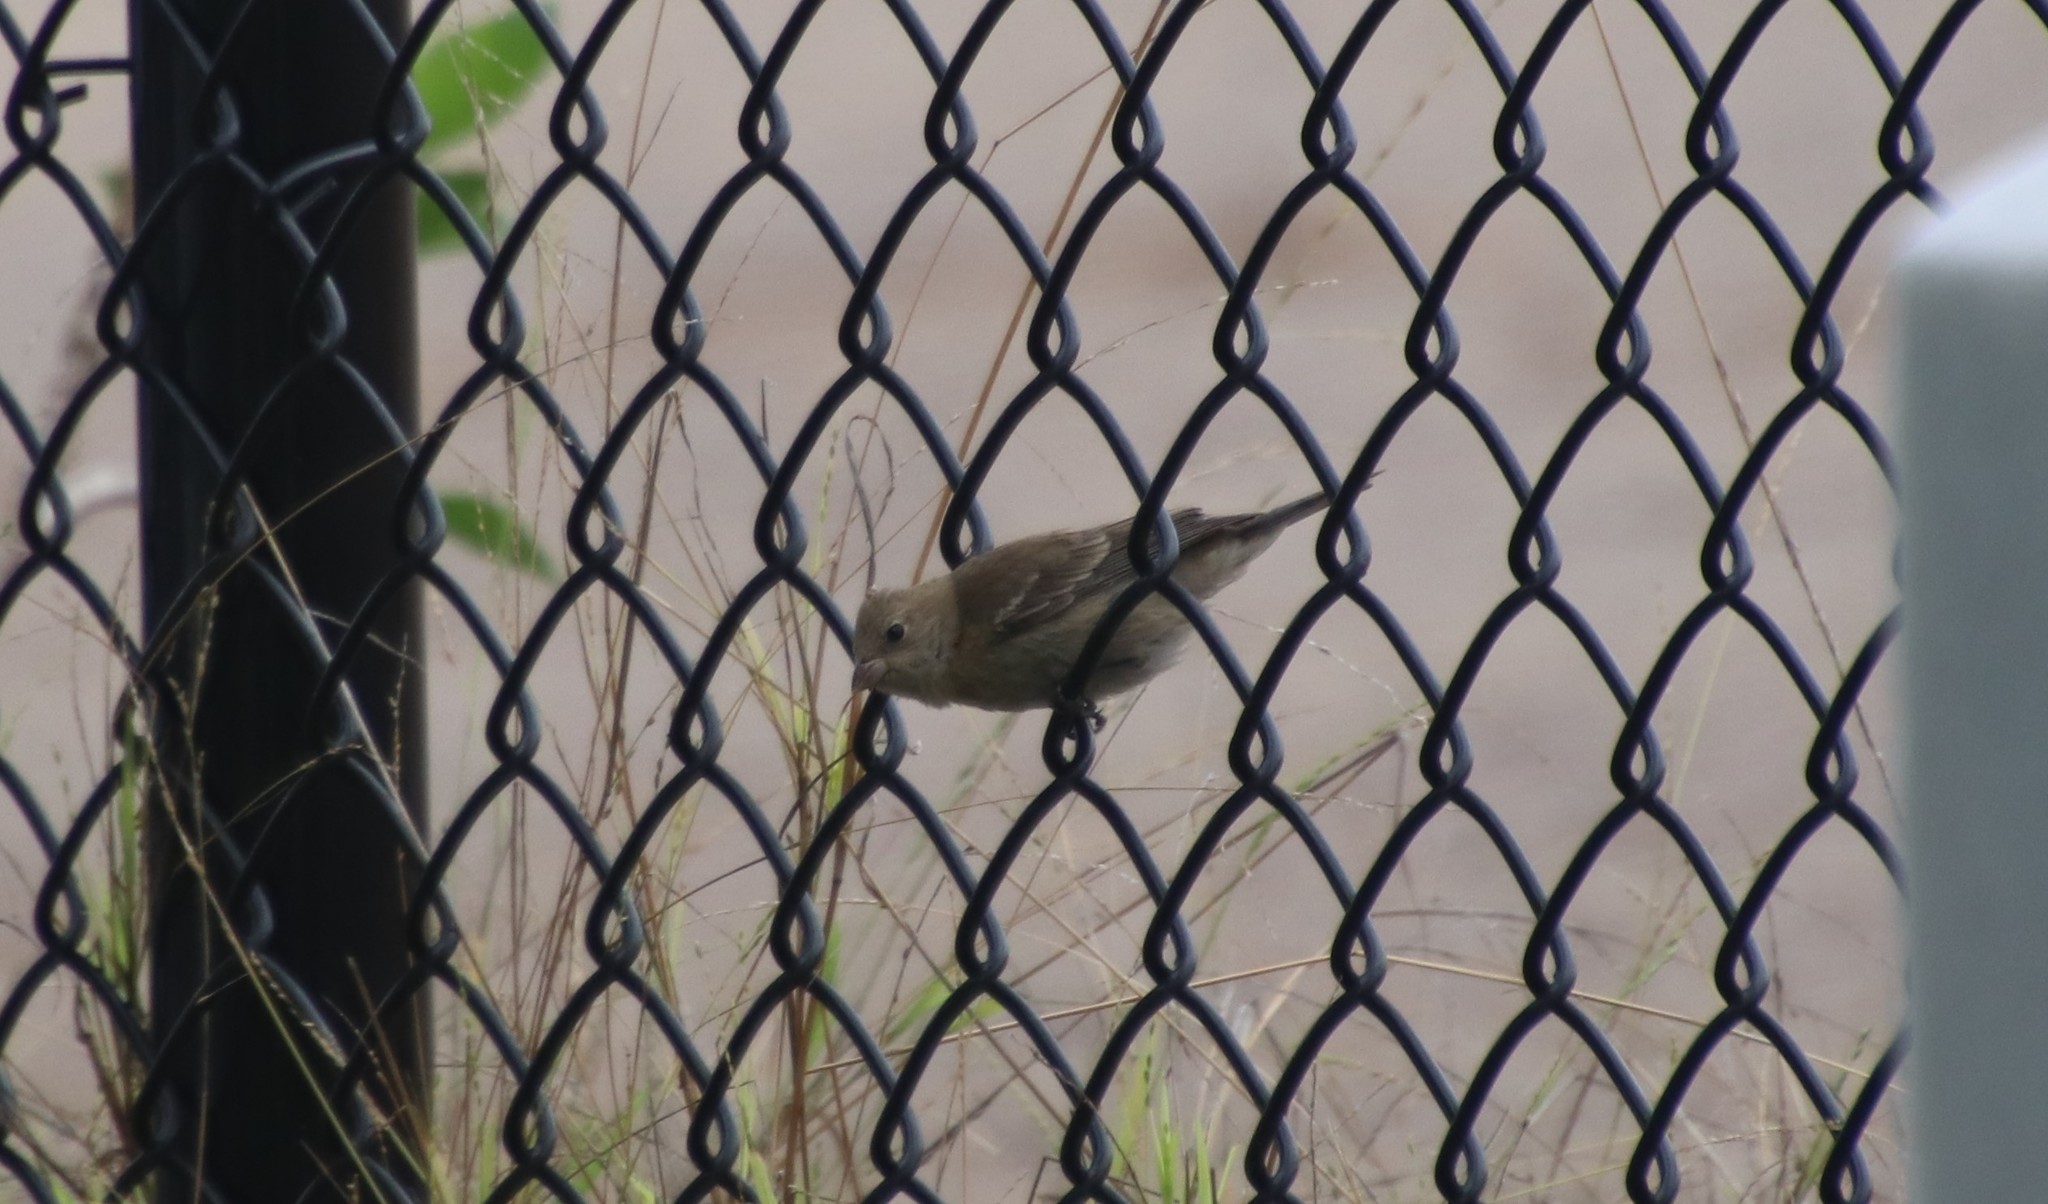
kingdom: Animalia
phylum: Chordata
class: Aves
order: Passeriformes
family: Cardinalidae
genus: Passerina
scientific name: Passerina amoena
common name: Lazuli bunting
